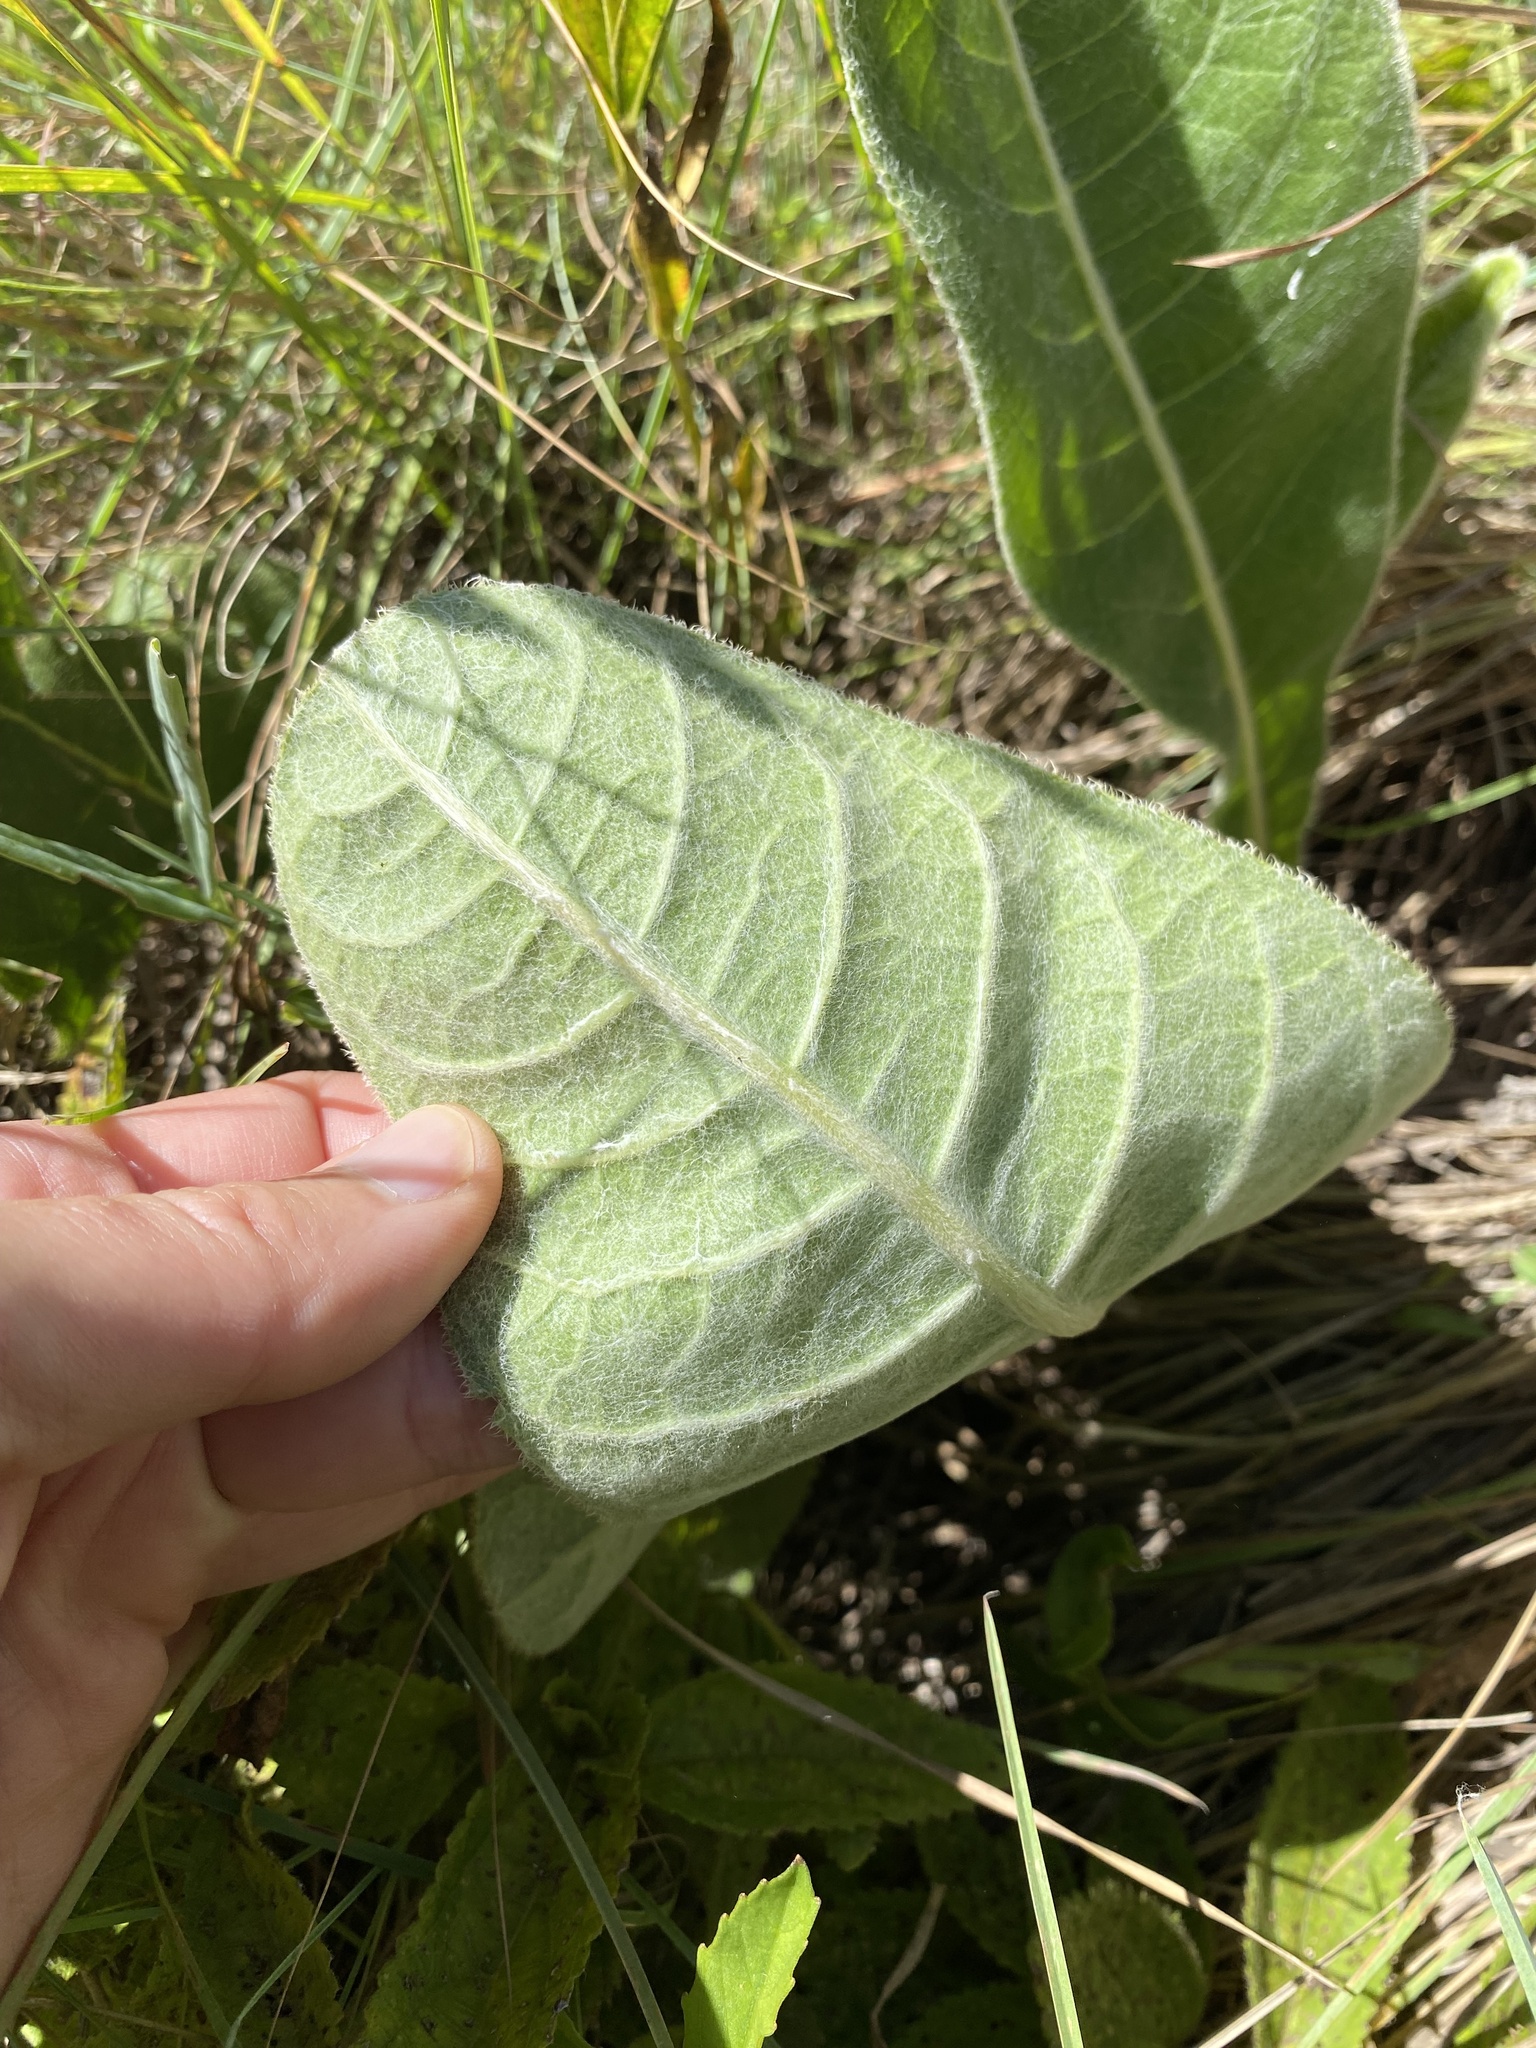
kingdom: Plantae
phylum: Tracheophyta
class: Magnoliopsida
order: Asterales
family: Asteraceae
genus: Berkheya
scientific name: Berkheya setifera
